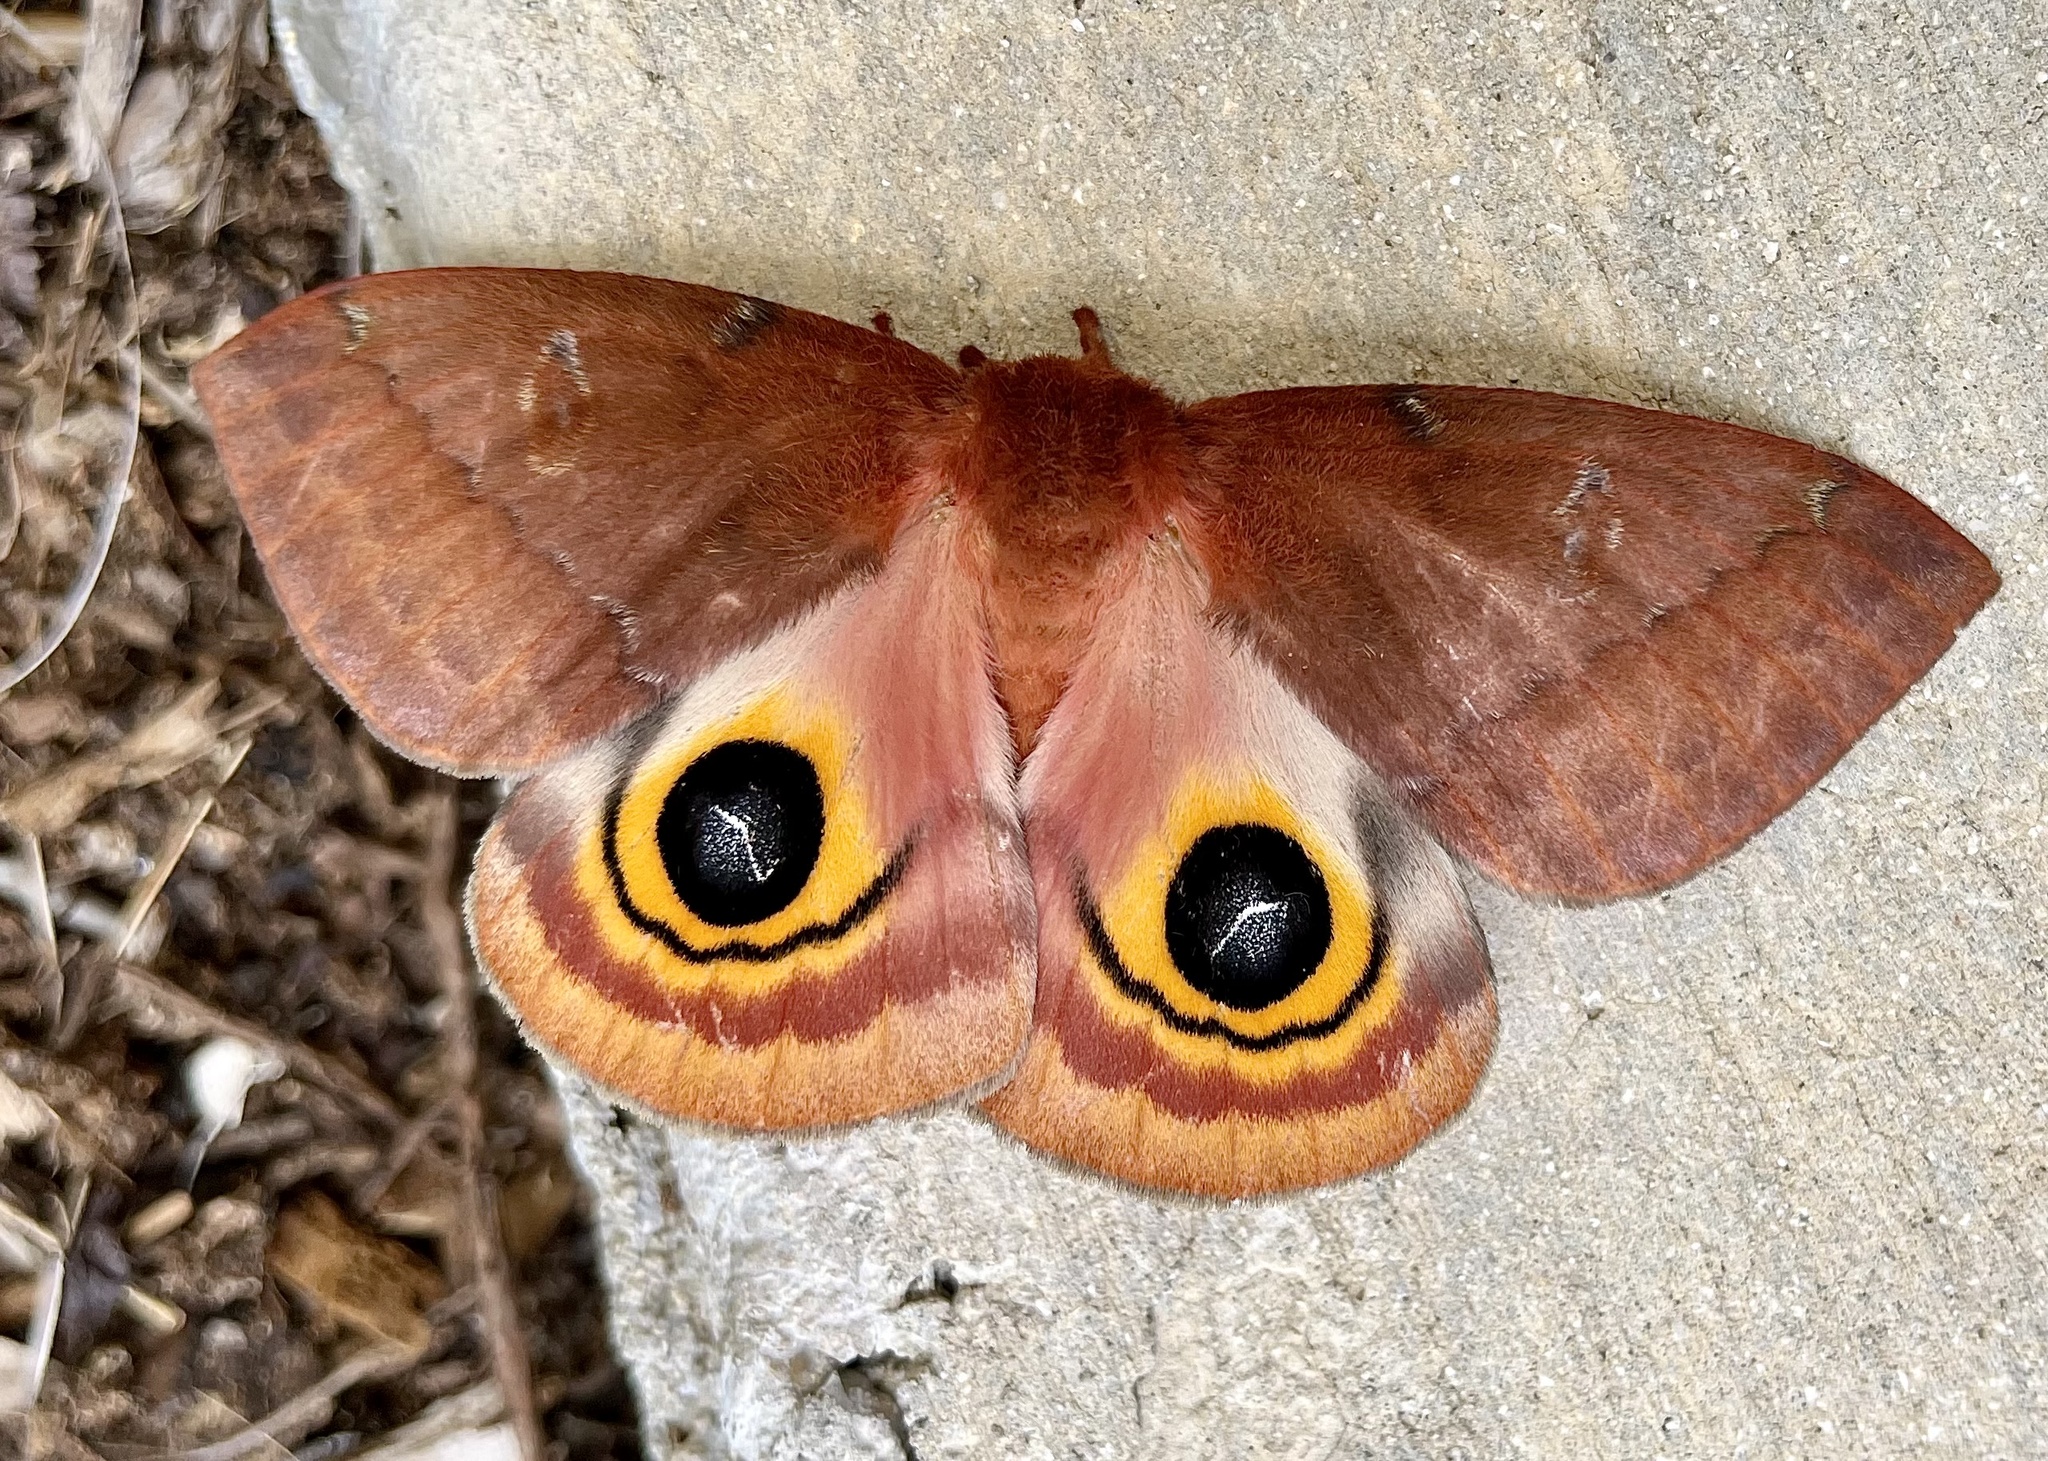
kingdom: Animalia
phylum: Arthropoda
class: Insecta
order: Lepidoptera
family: Saturniidae
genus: Automeris
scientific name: Automeris io
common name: Io moth
